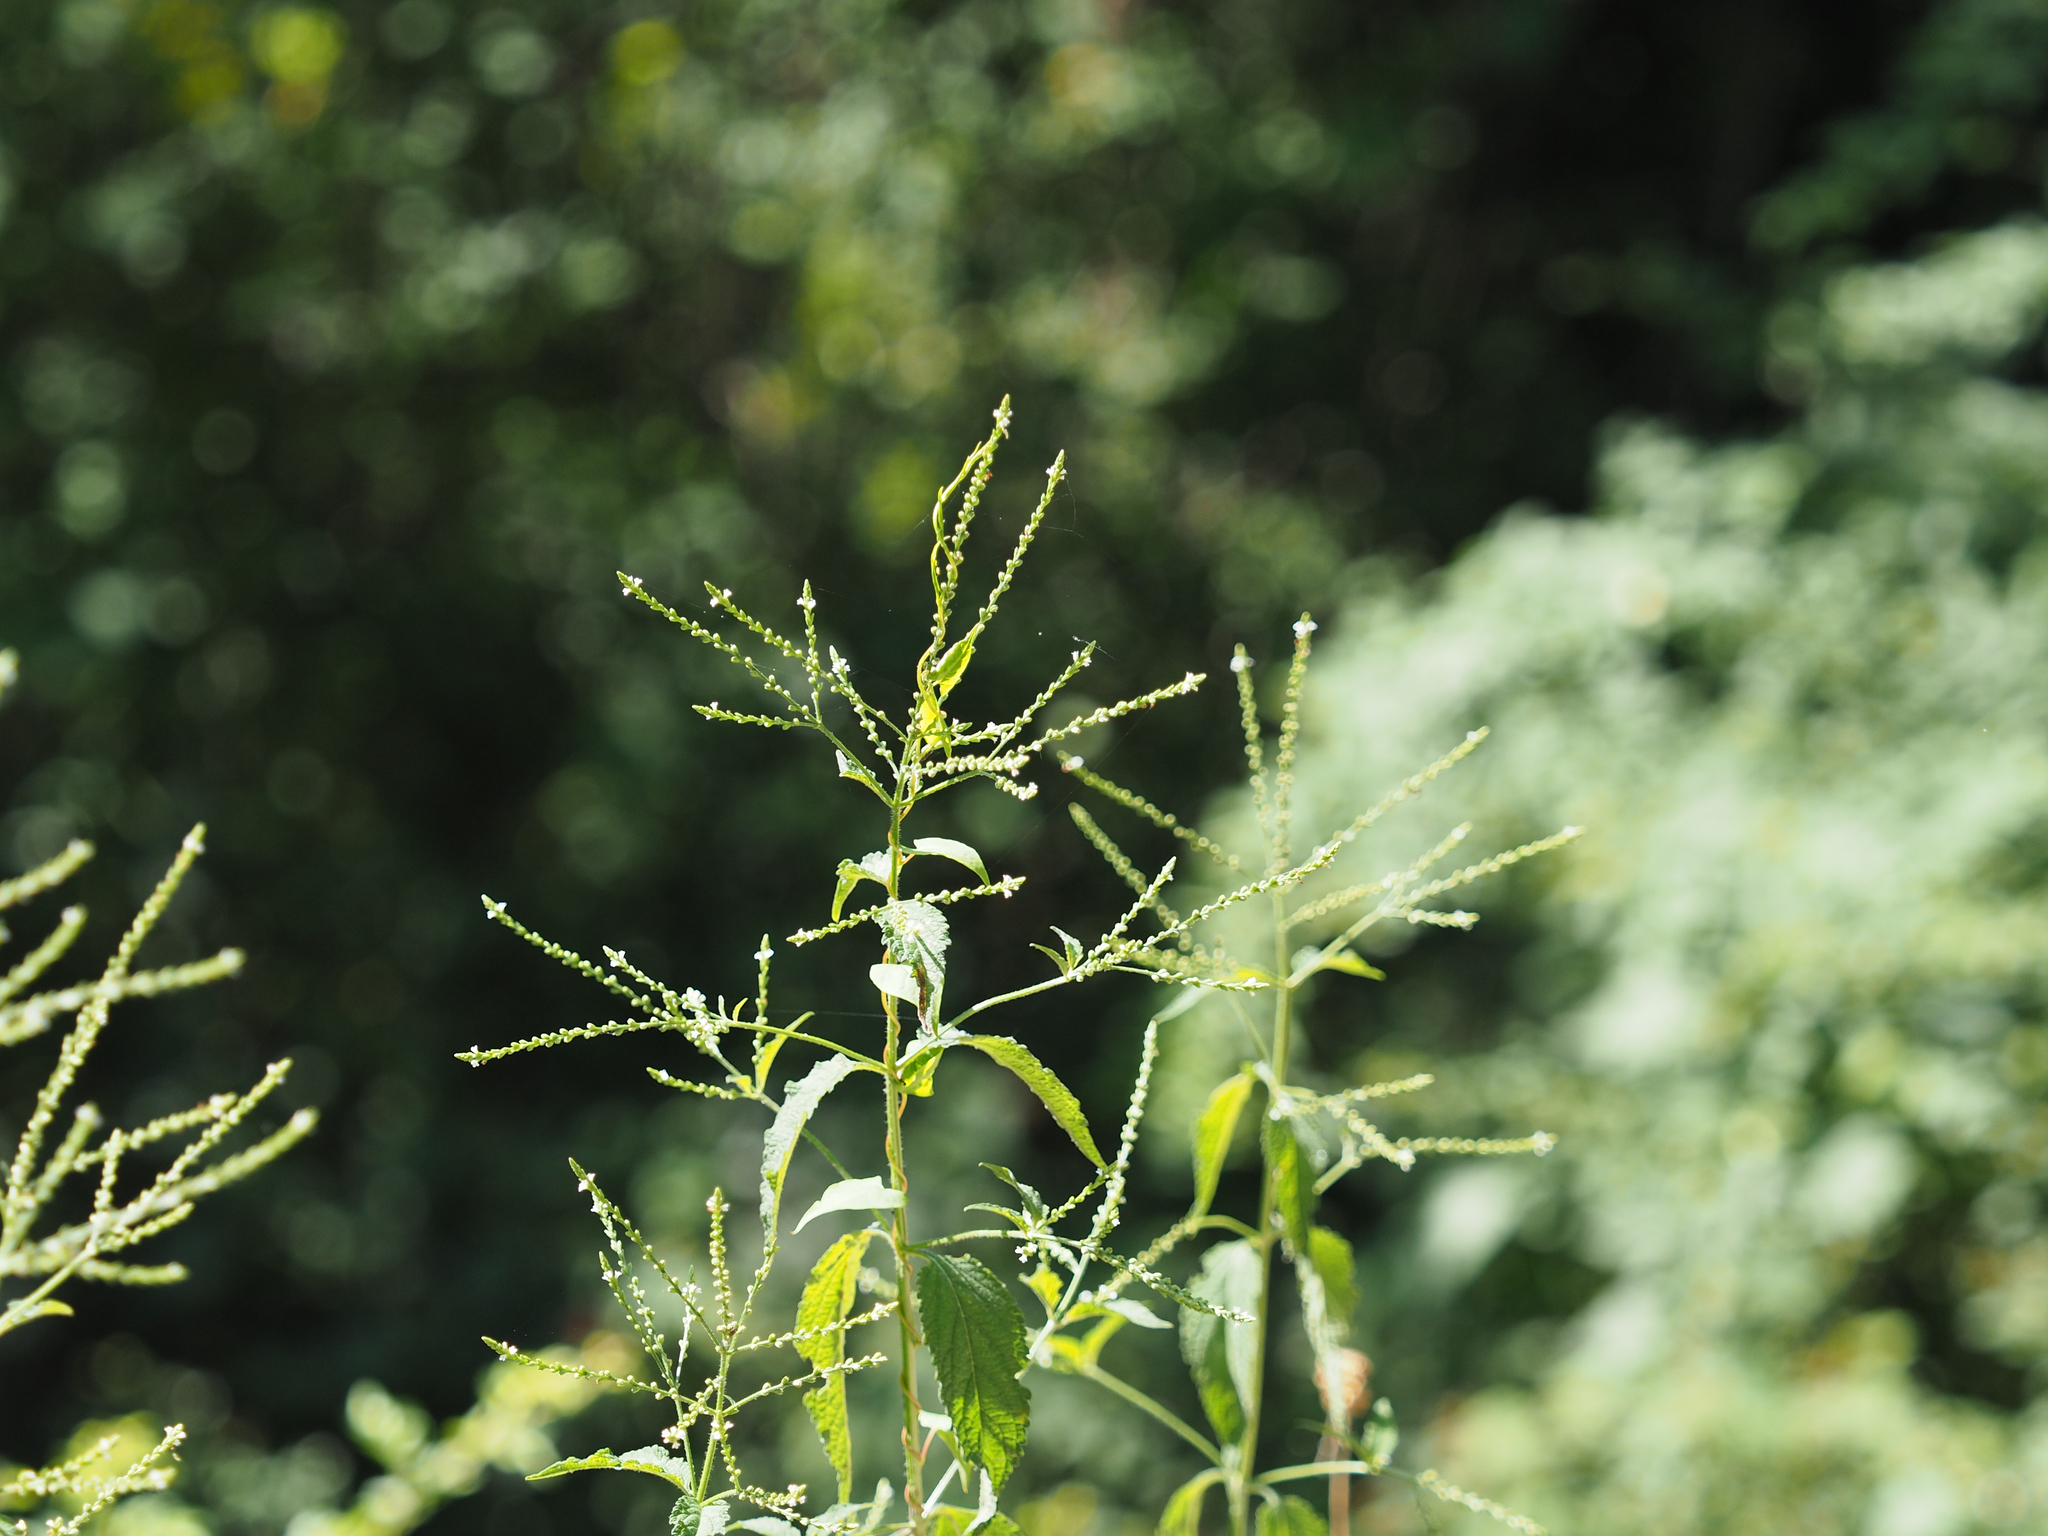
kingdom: Plantae
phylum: Tracheophyta
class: Magnoliopsida
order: Lamiales
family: Verbenaceae
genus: Verbena
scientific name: Verbena urticifolia
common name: Nettle-leaved vervain
